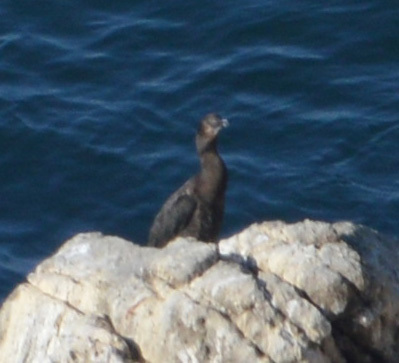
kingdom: Animalia
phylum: Chordata
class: Aves
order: Suliformes
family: Phalacrocoracidae
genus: Urile
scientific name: Urile penicillatus
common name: Brandt's cormorant
